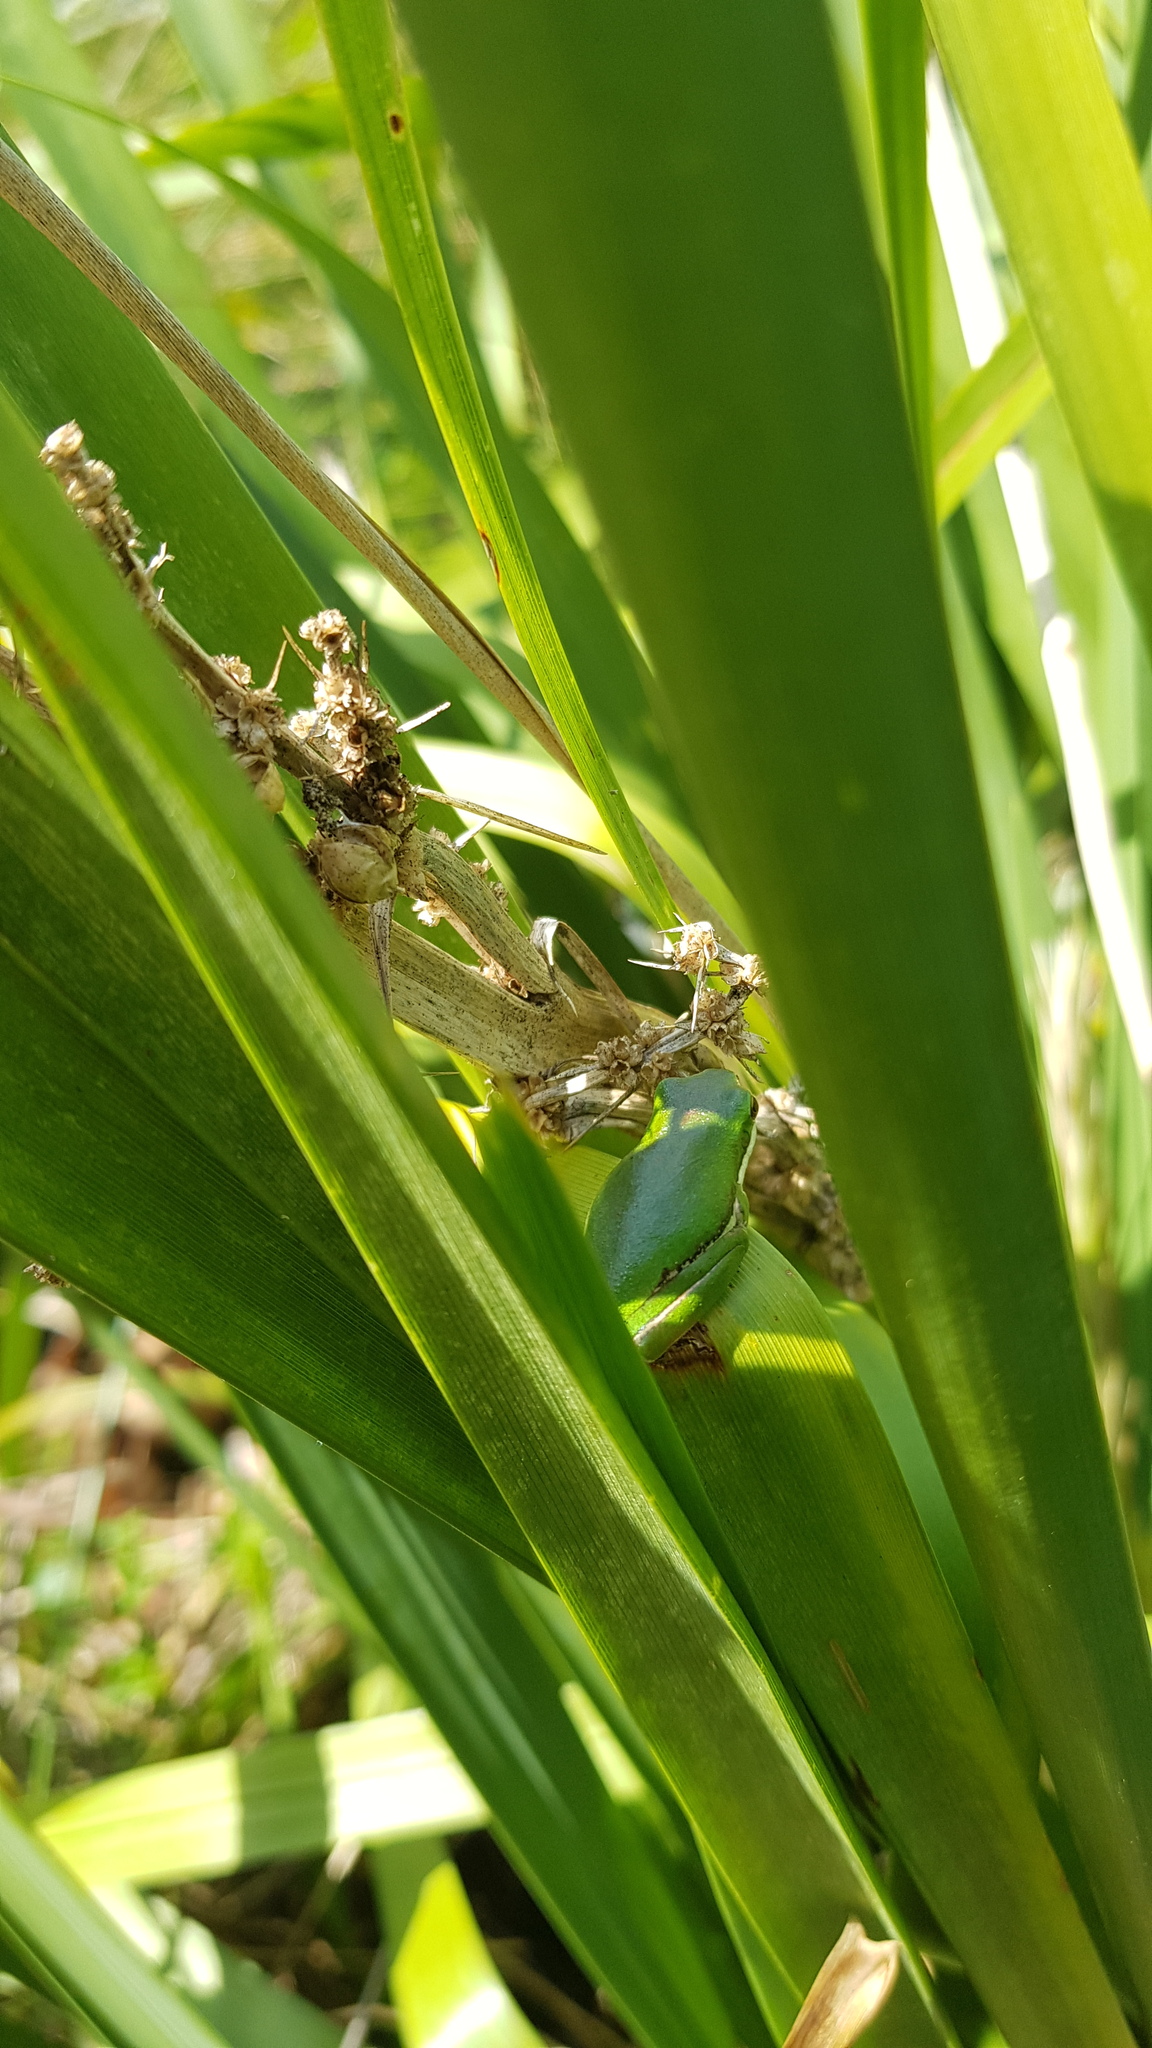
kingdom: Animalia
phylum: Chordata
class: Amphibia
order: Anura
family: Pelodryadidae
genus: Litoria
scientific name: Litoria fallax
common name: Eastern dwarf treefrog
